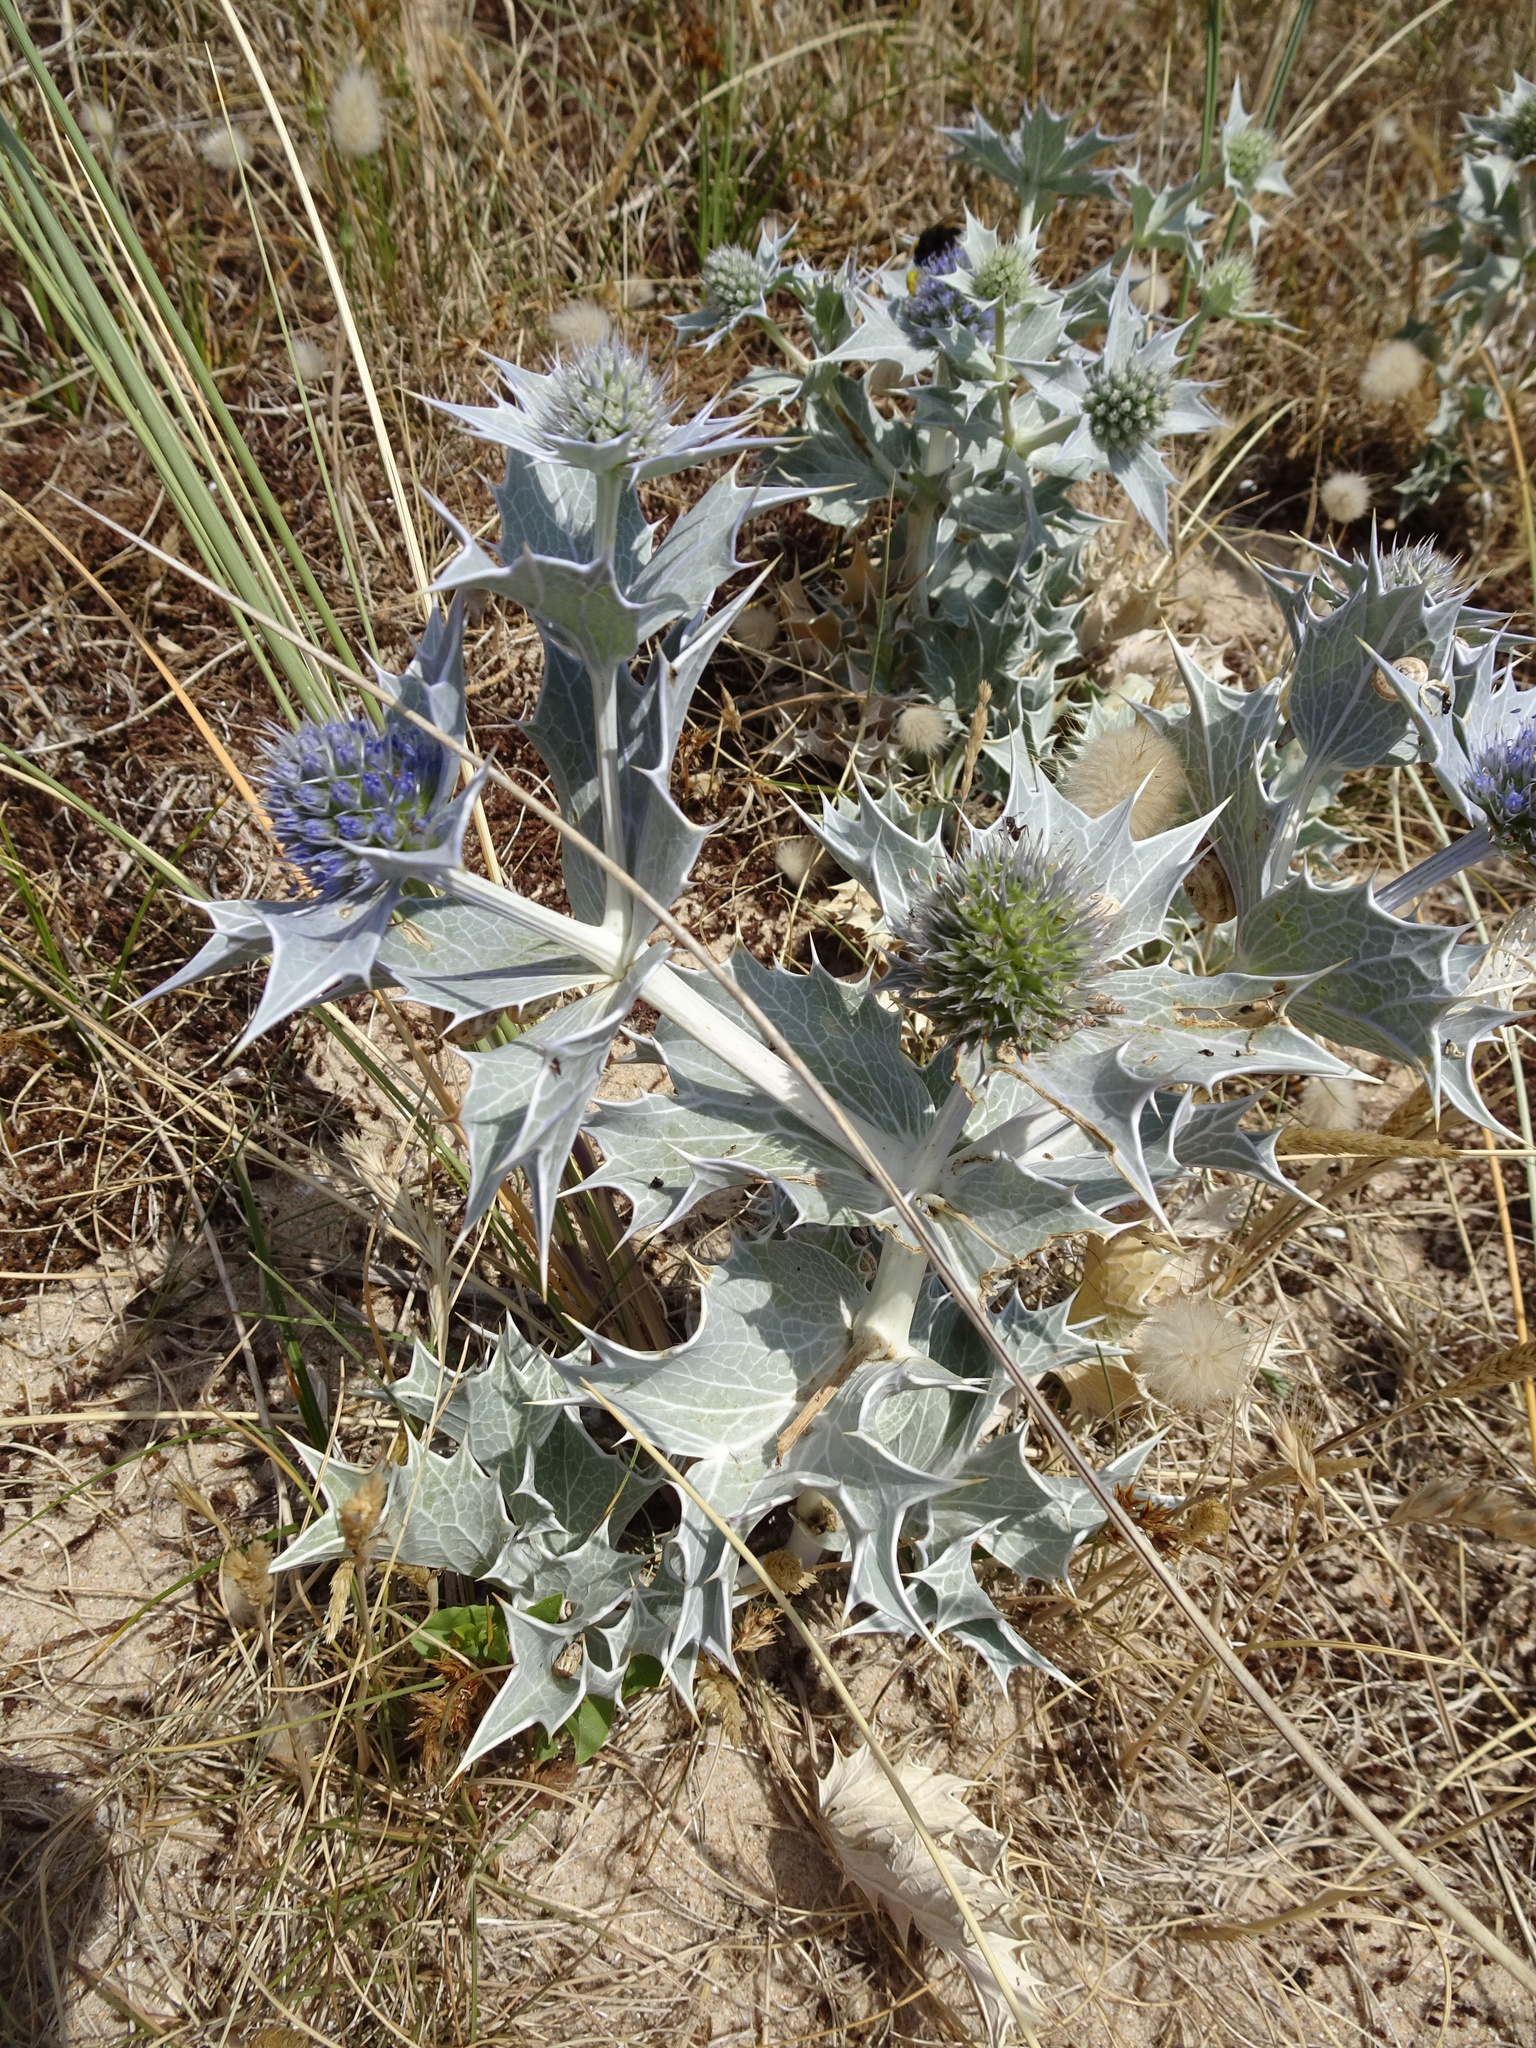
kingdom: Plantae
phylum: Tracheophyta
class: Magnoliopsida
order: Apiales
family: Apiaceae
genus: Eryngium
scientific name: Eryngium maritimum
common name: Sea-holly
